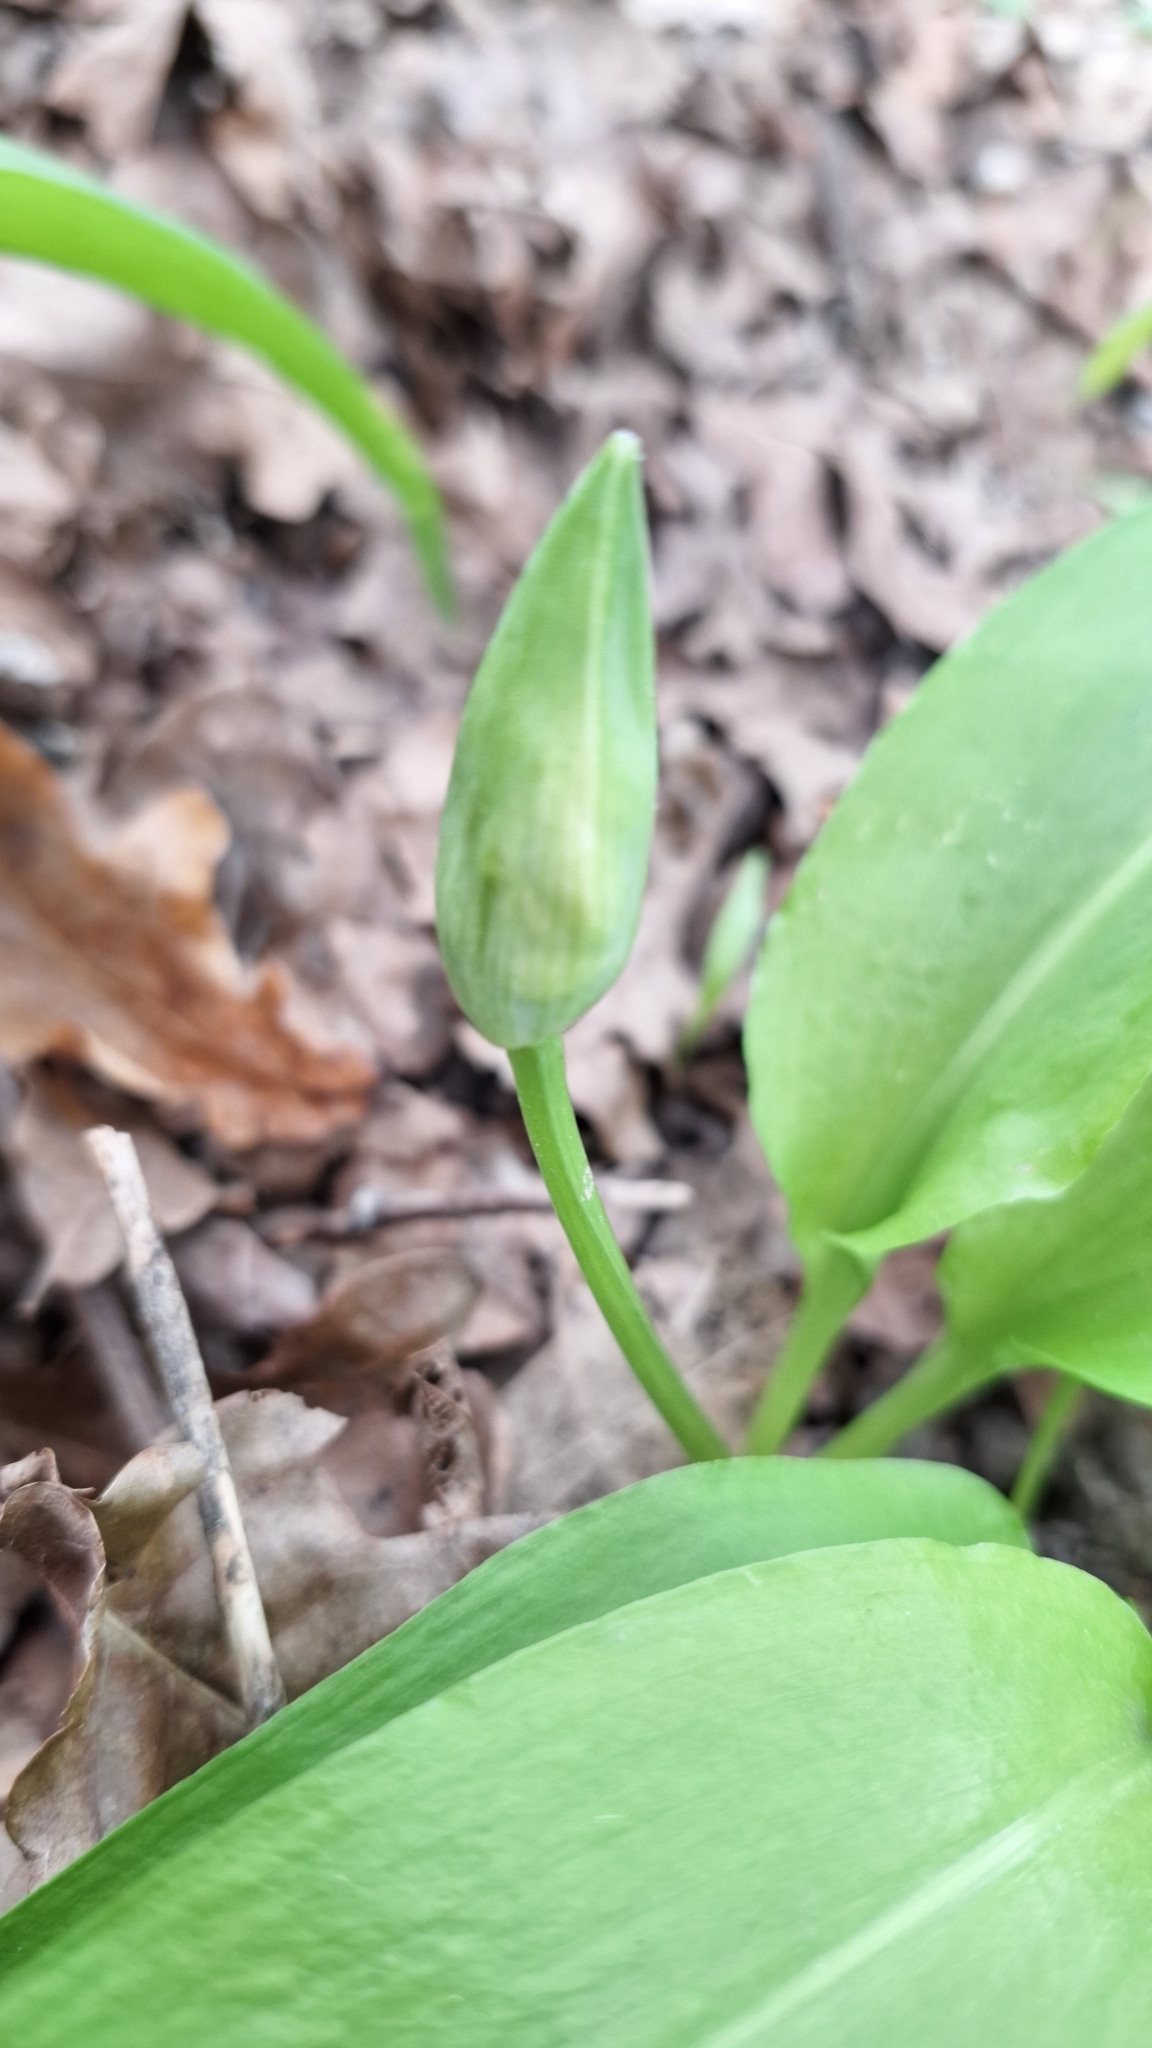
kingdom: Plantae
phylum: Tracheophyta
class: Liliopsida
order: Asparagales
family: Amaryllidaceae
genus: Allium
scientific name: Allium ursinum
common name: Ramsons
